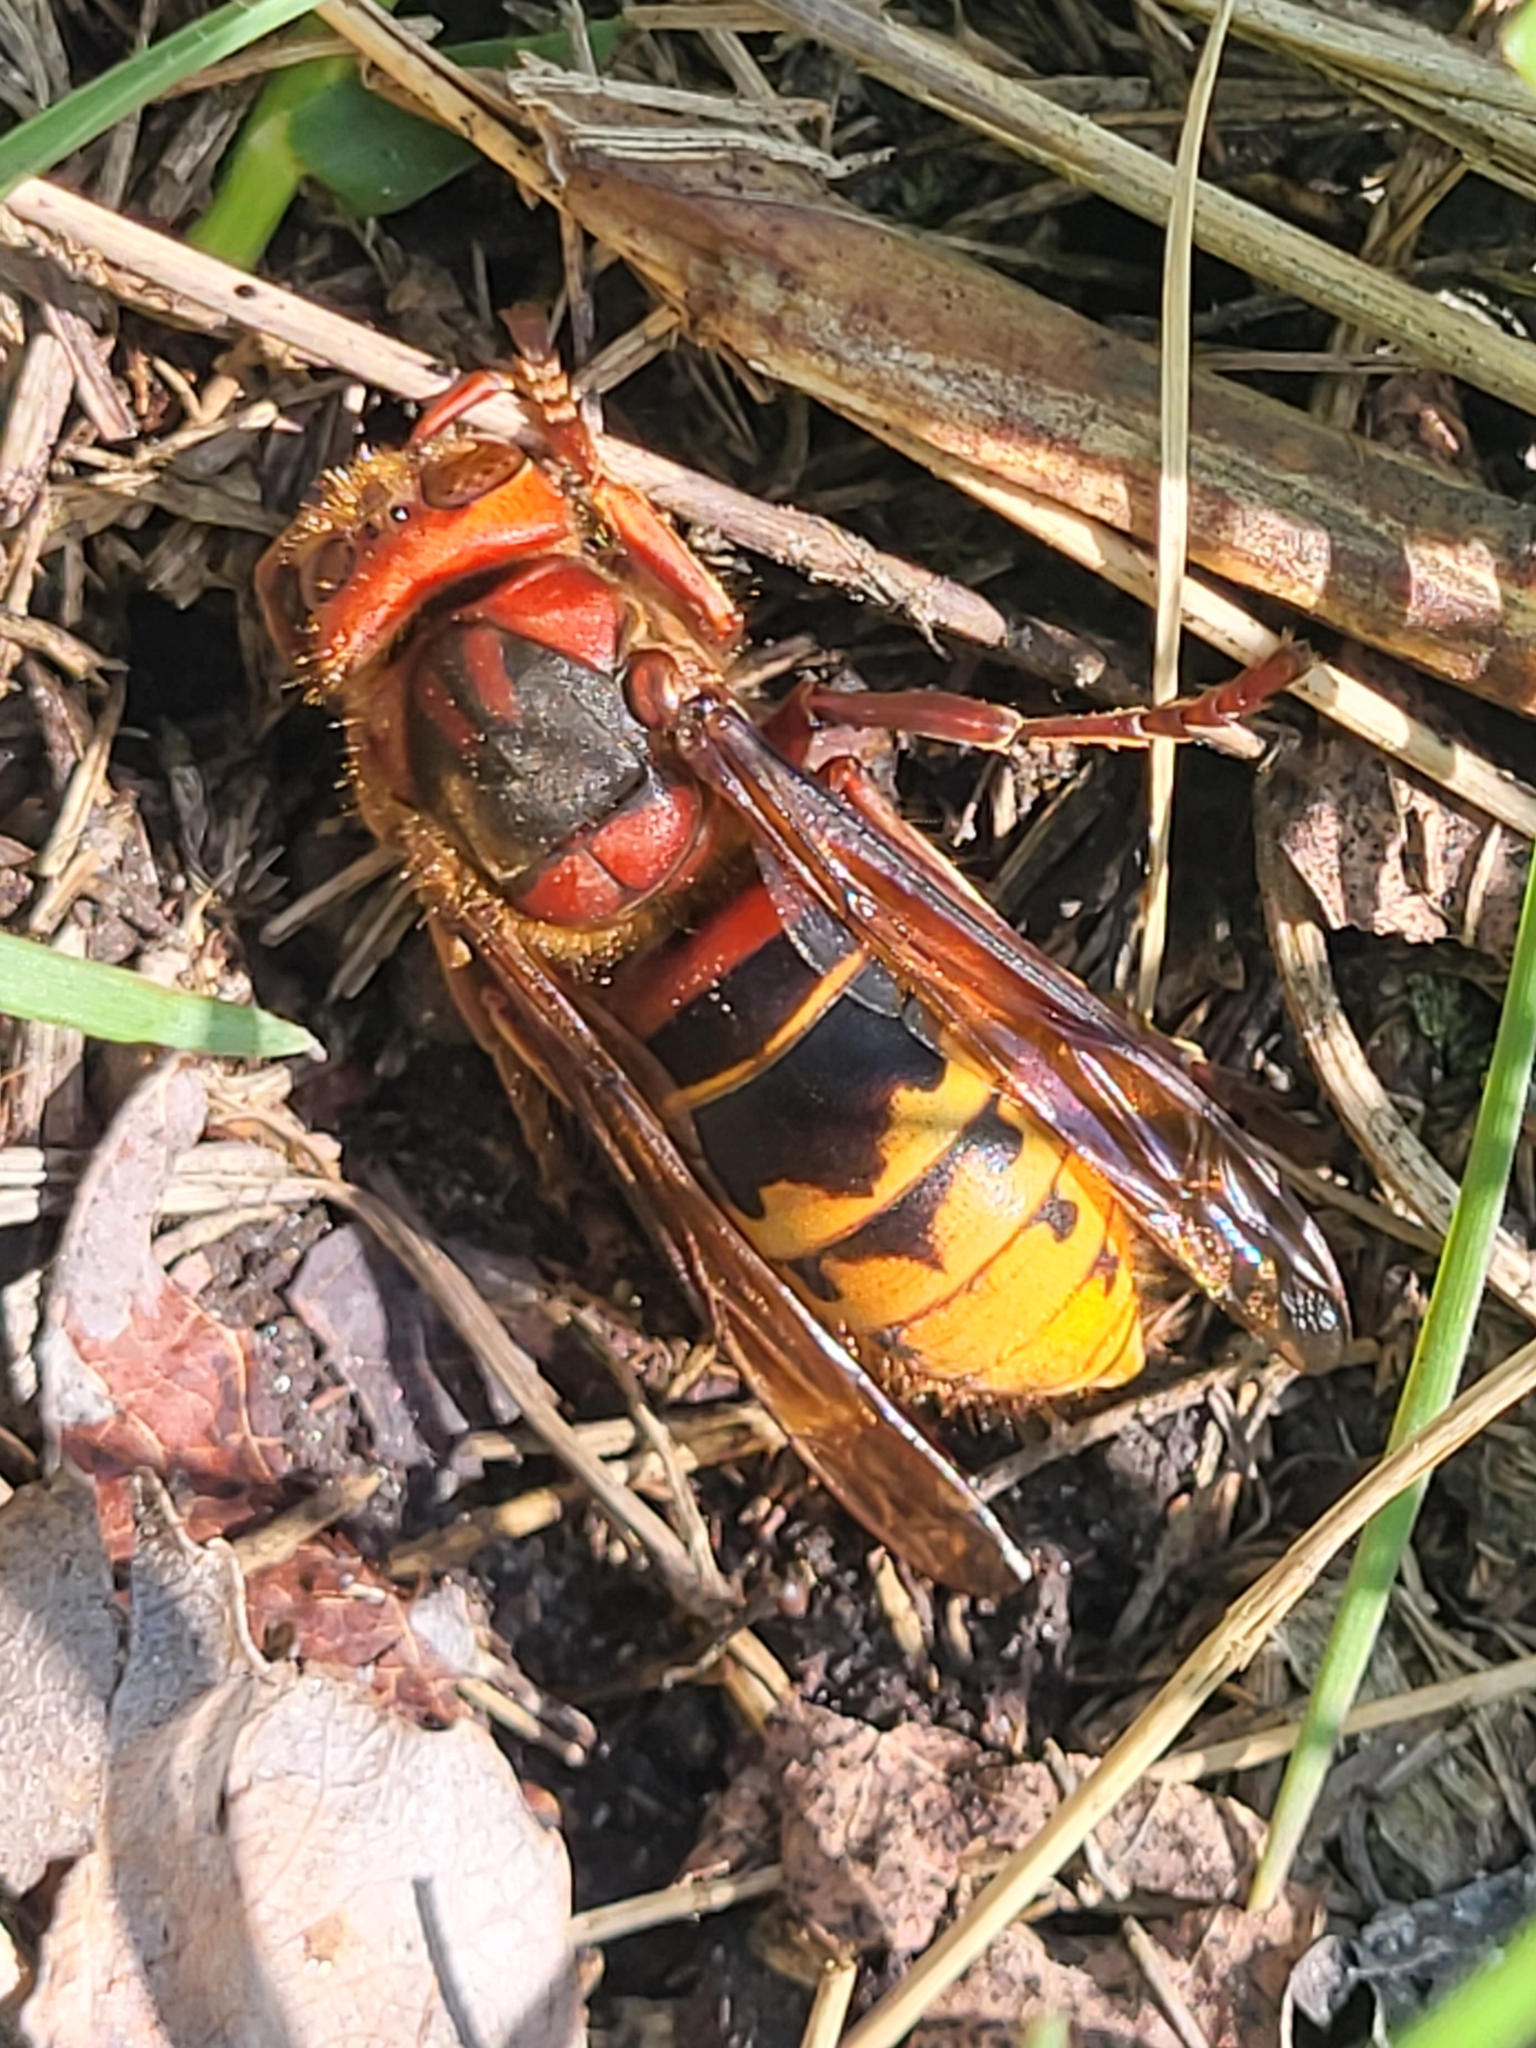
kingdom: Animalia
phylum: Arthropoda
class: Insecta
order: Hymenoptera
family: Vespidae
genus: Vespa
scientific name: Vespa crabro
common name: Hornet
